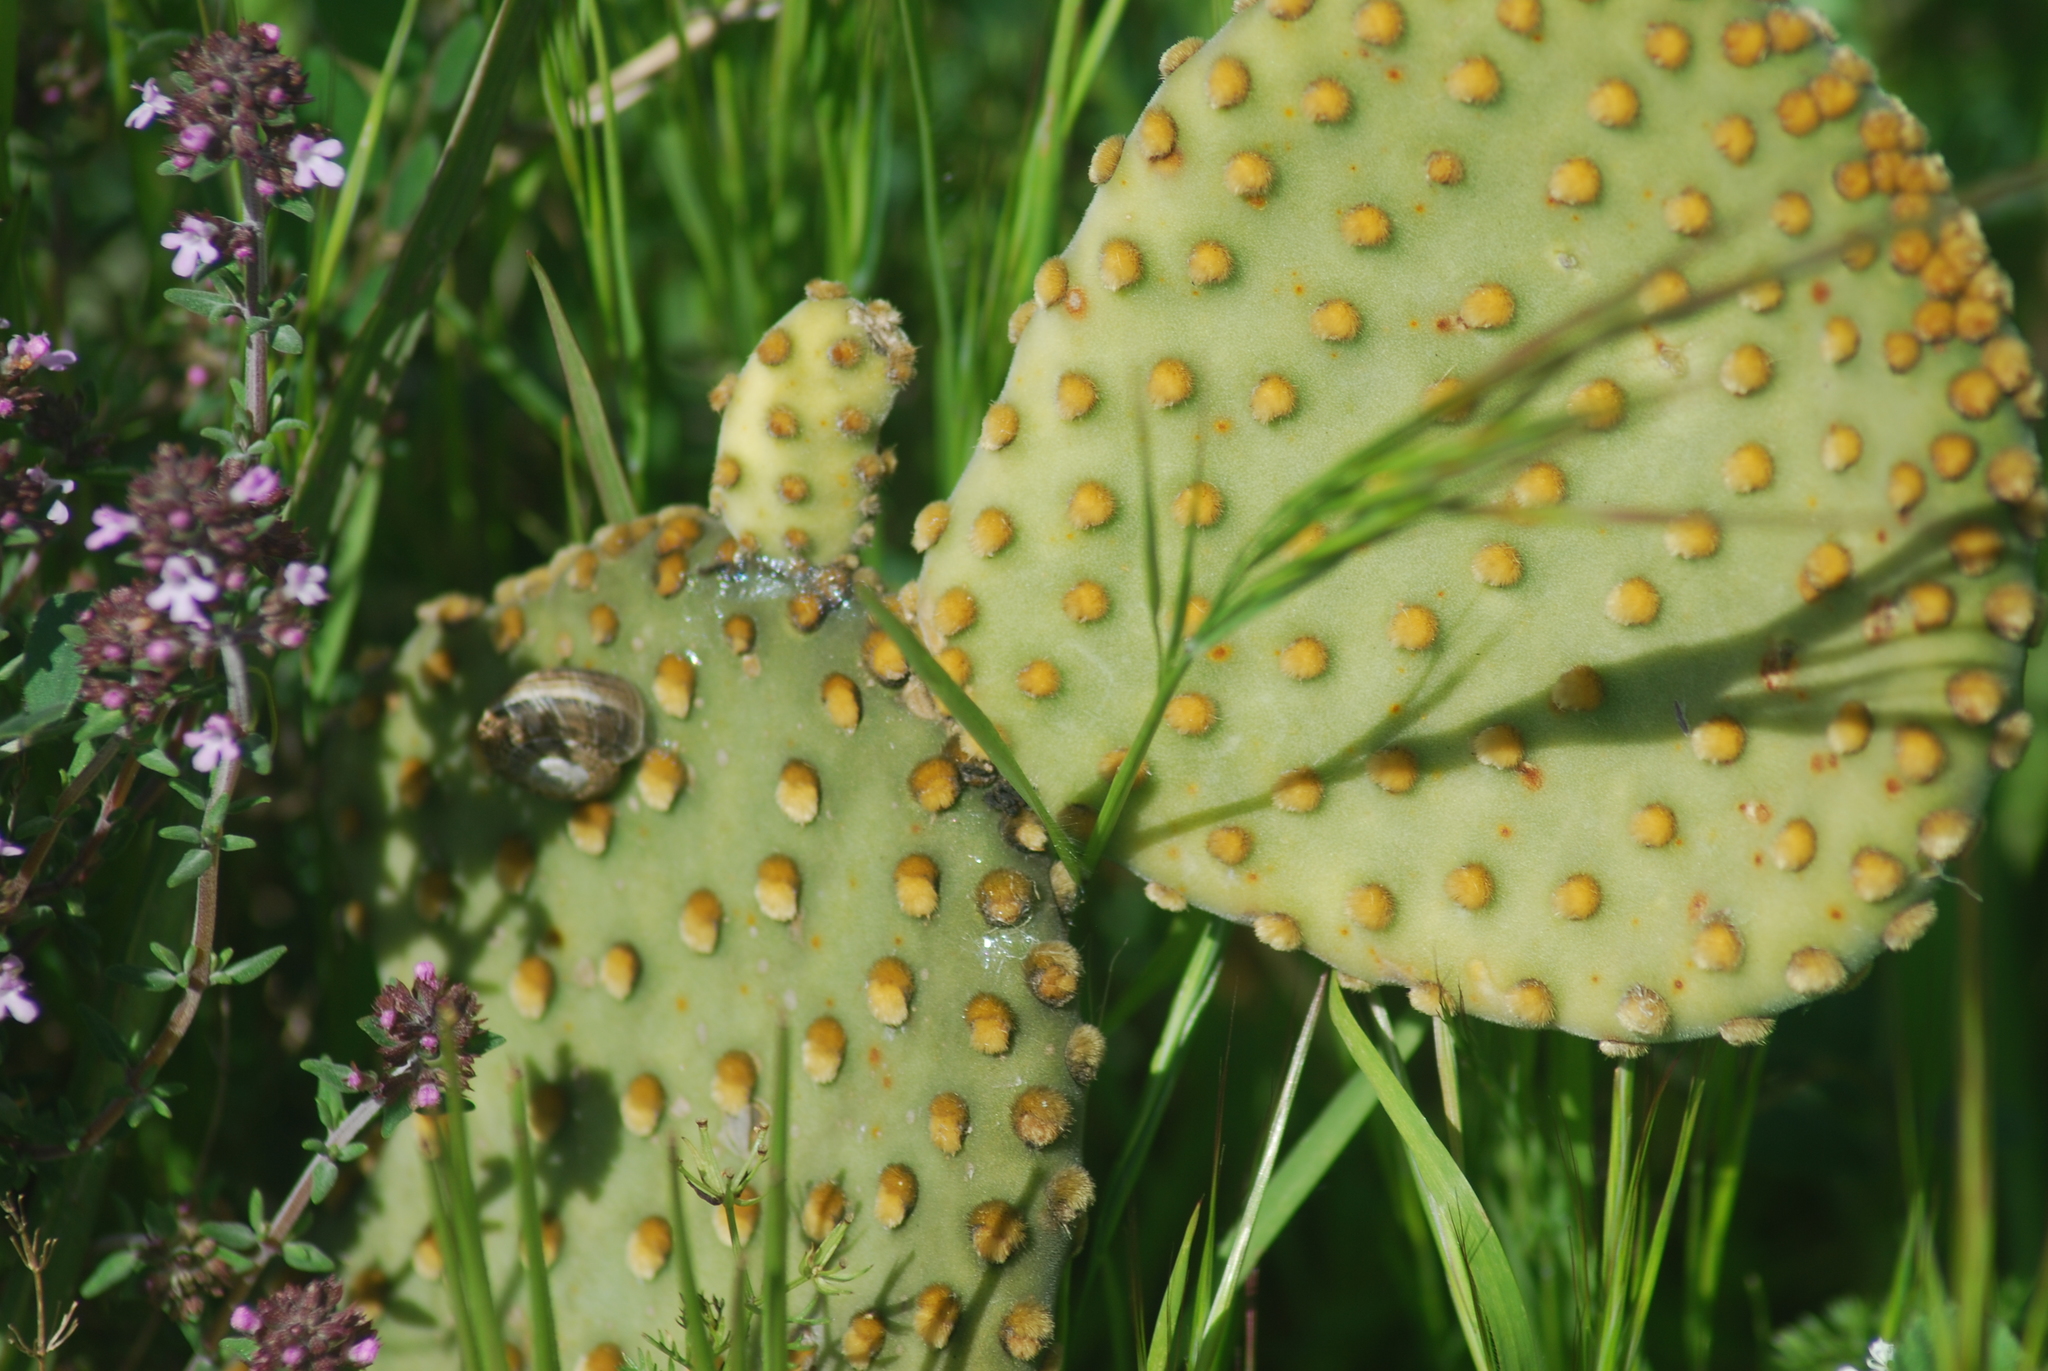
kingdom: Plantae
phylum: Tracheophyta
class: Magnoliopsida
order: Caryophyllales
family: Cactaceae
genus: Opuntia
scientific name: Opuntia microdasys
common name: Angel's-wings
